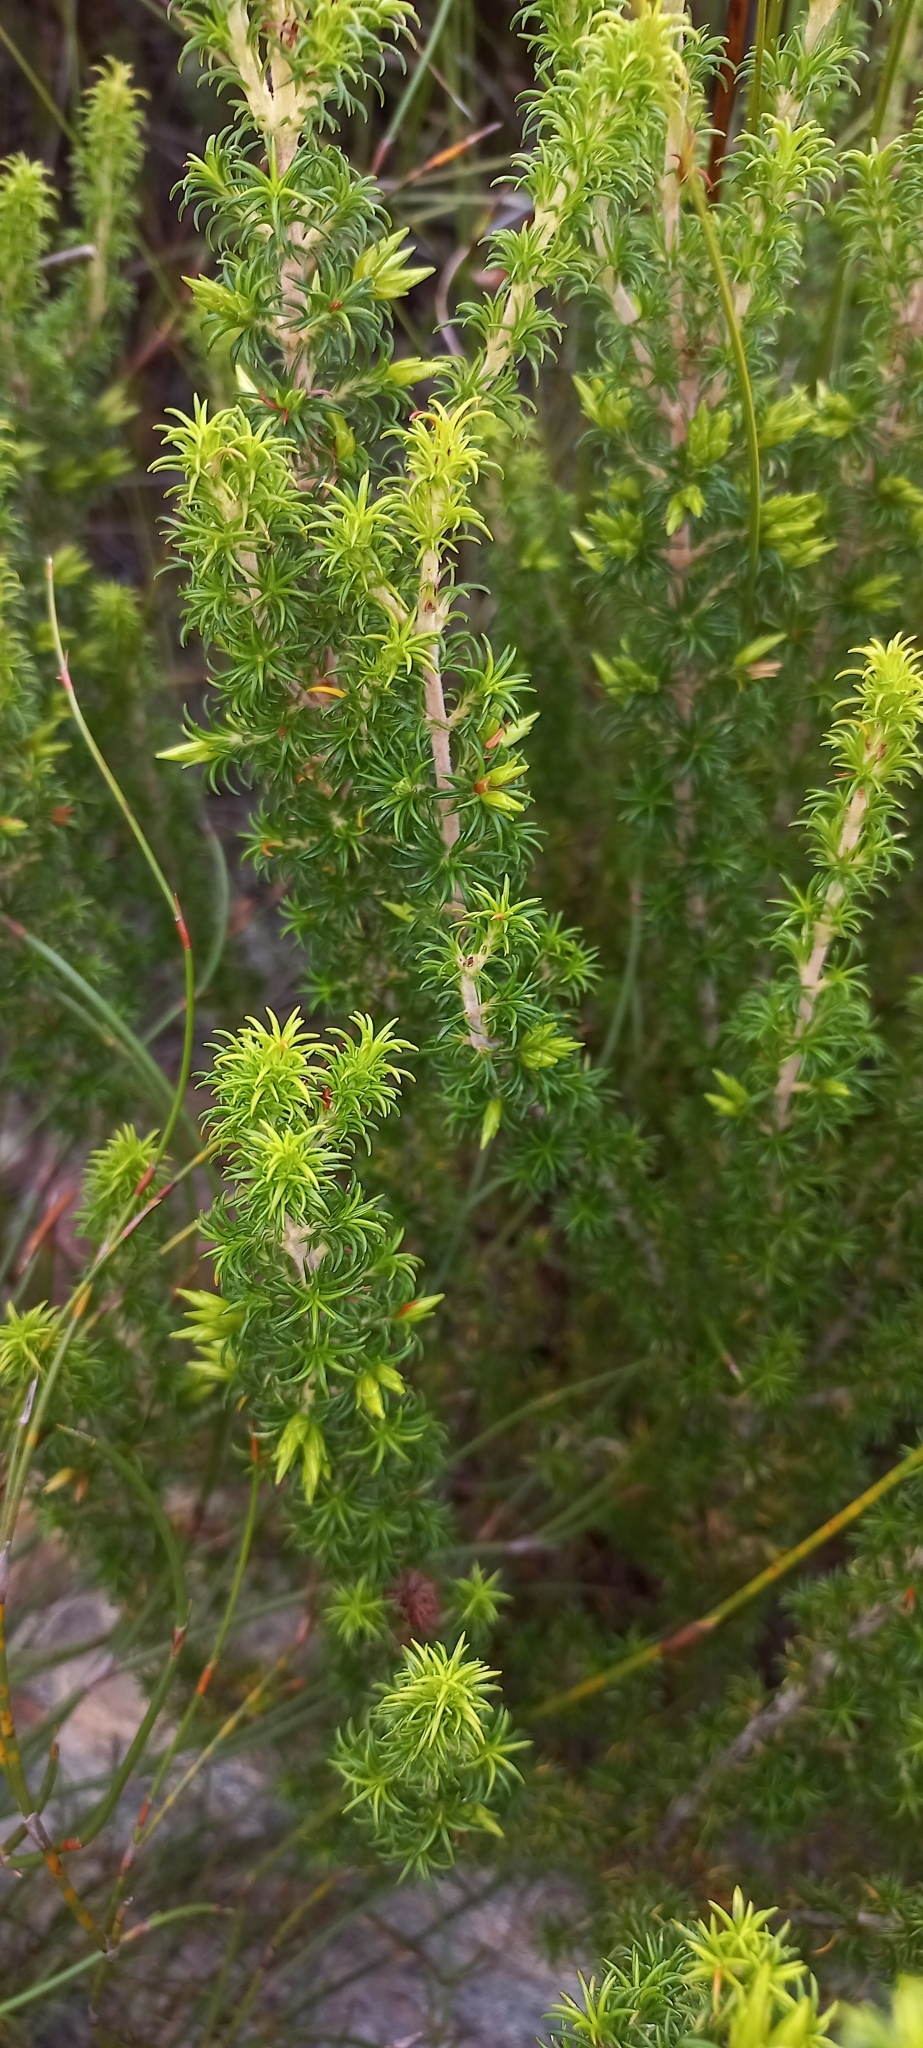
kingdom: Plantae
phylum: Tracheophyta
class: Magnoliopsida
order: Ericales
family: Ericaceae
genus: Erica
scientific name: Erica coccinea
